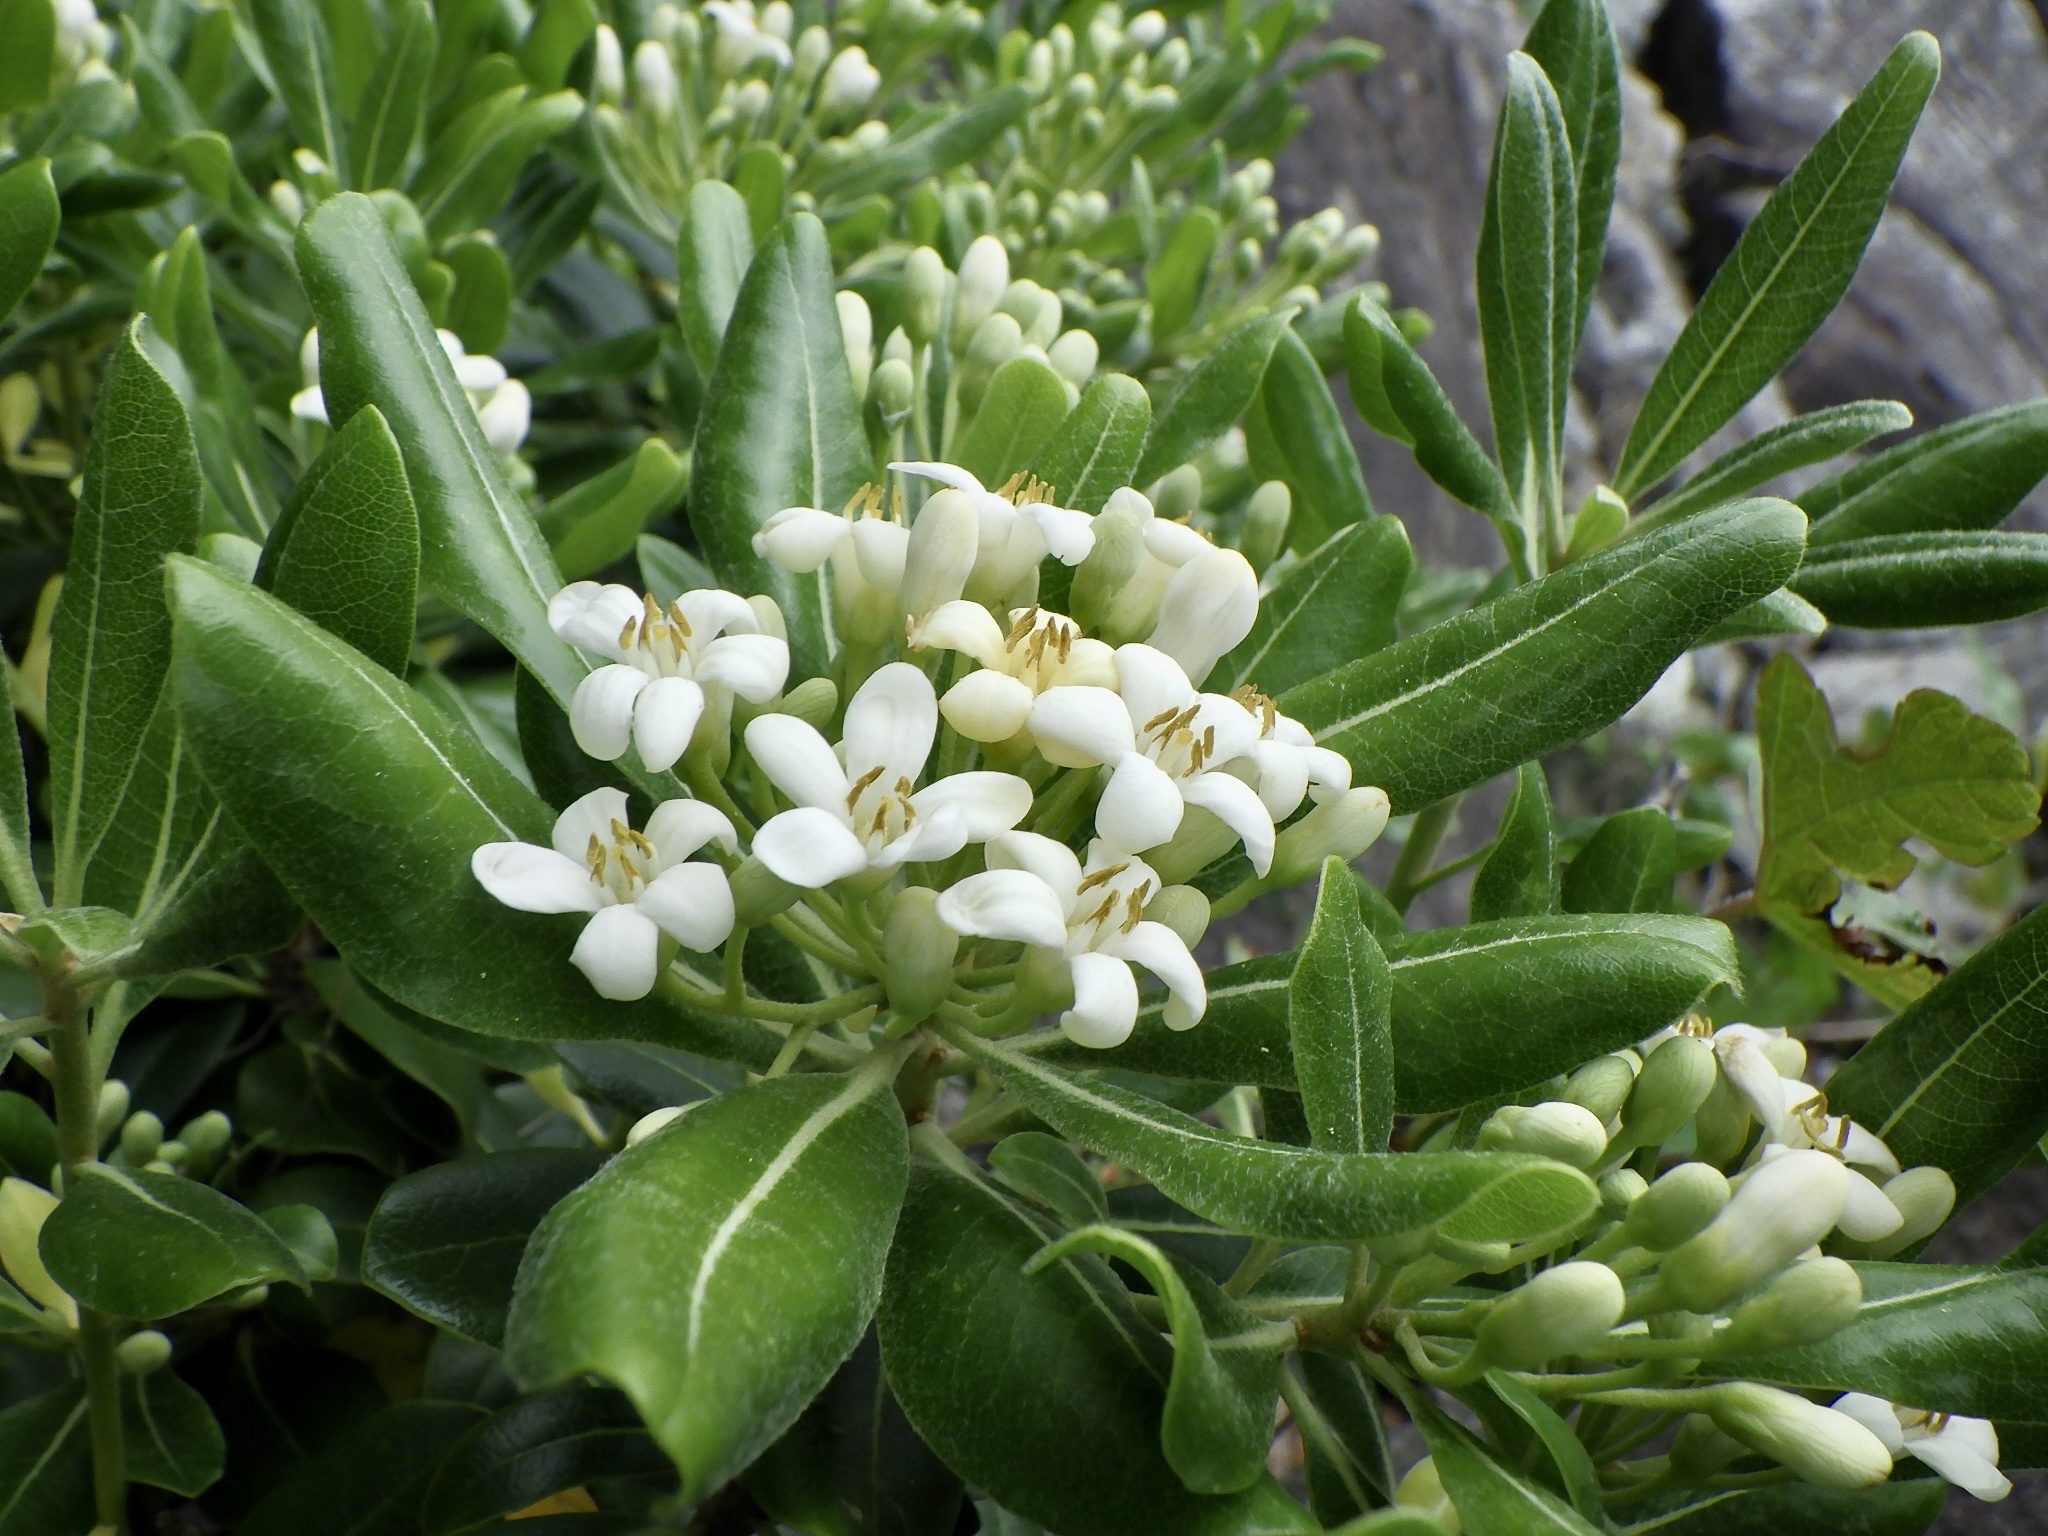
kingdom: Plantae
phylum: Tracheophyta
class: Magnoliopsida
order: Apiales
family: Pittosporaceae
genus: Pittosporum
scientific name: Pittosporum tobira
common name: Japanese cheesewood
